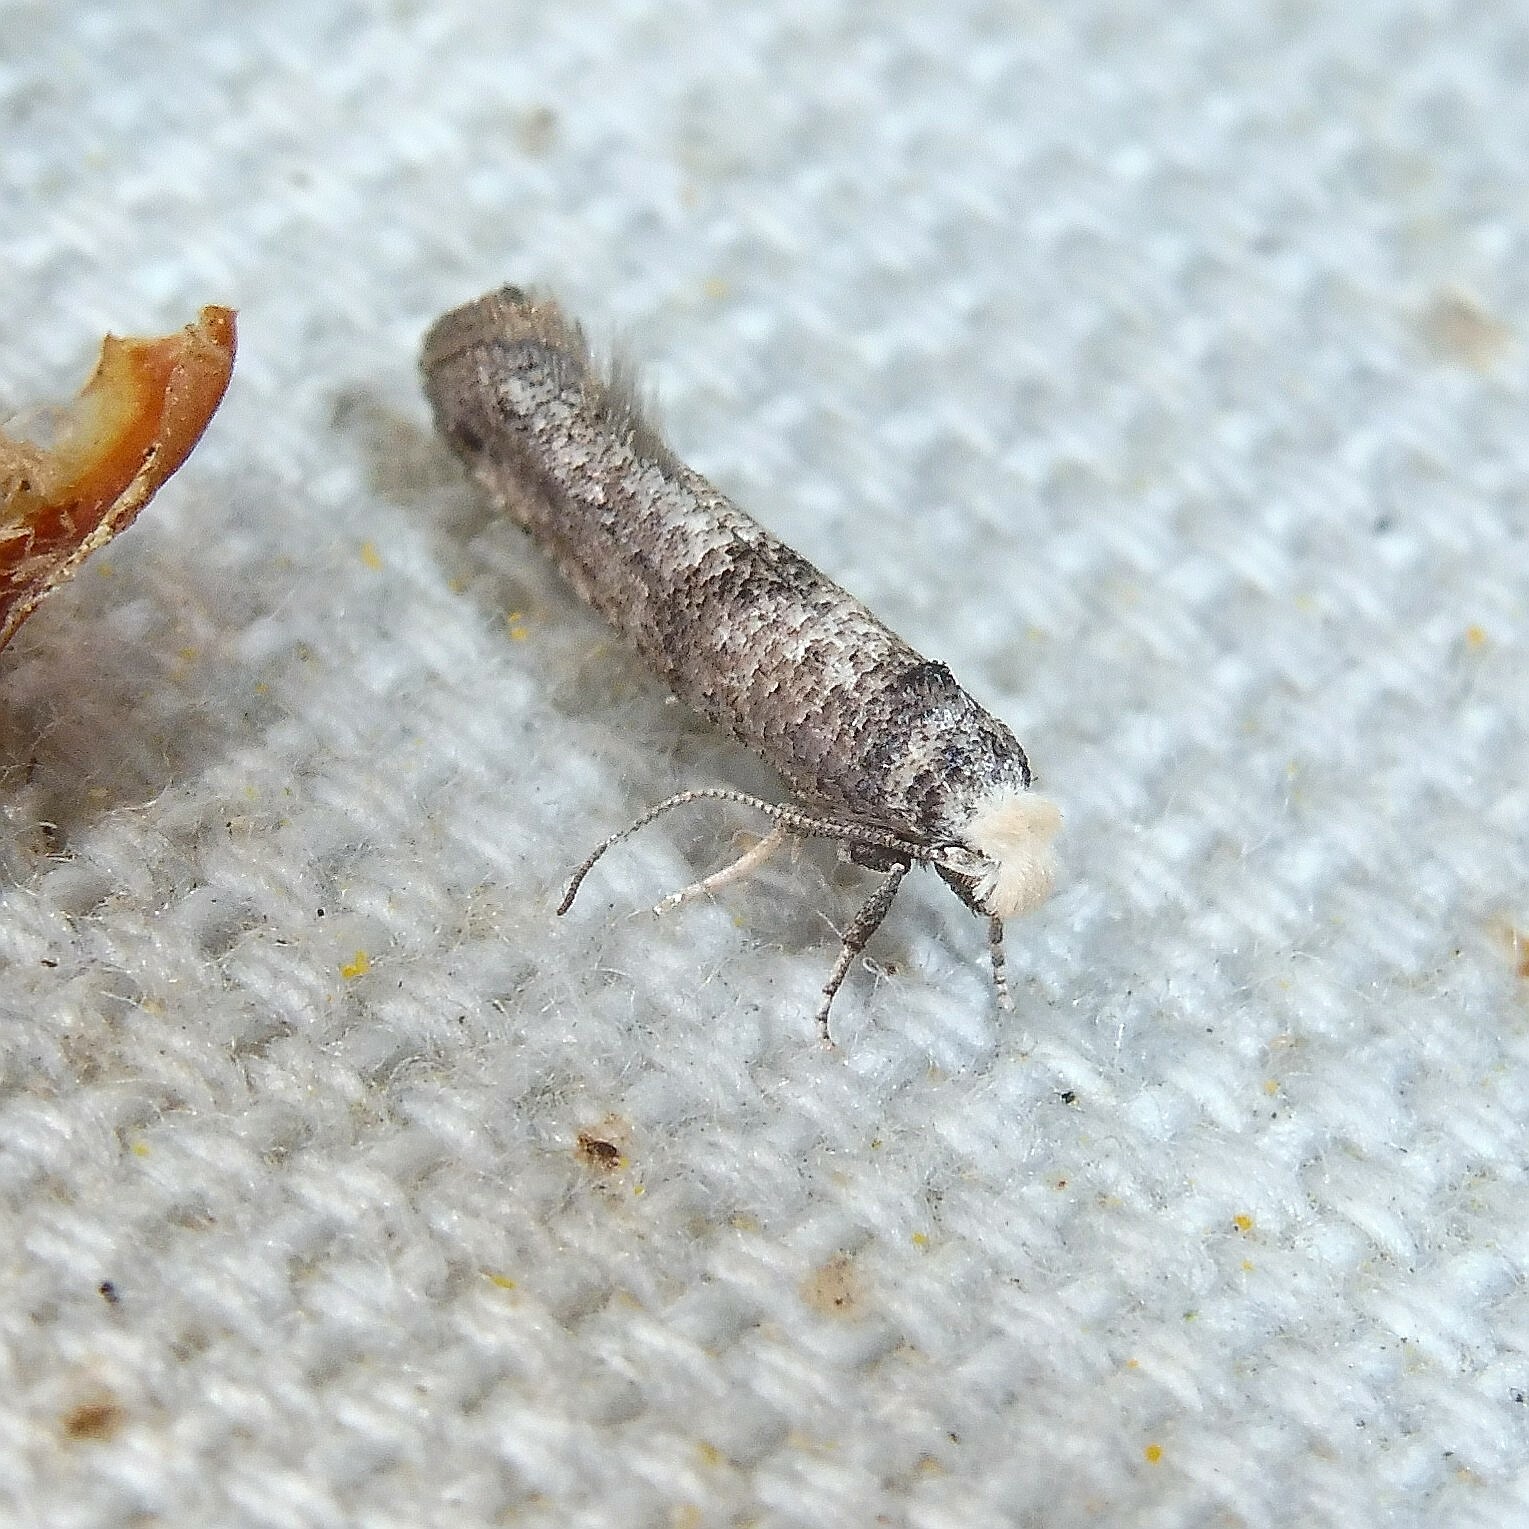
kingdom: Animalia
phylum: Arthropoda
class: Insecta
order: Lepidoptera
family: Yponomeutidae
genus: Paraswammerdamia
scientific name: Paraswammerdamia lutarea
